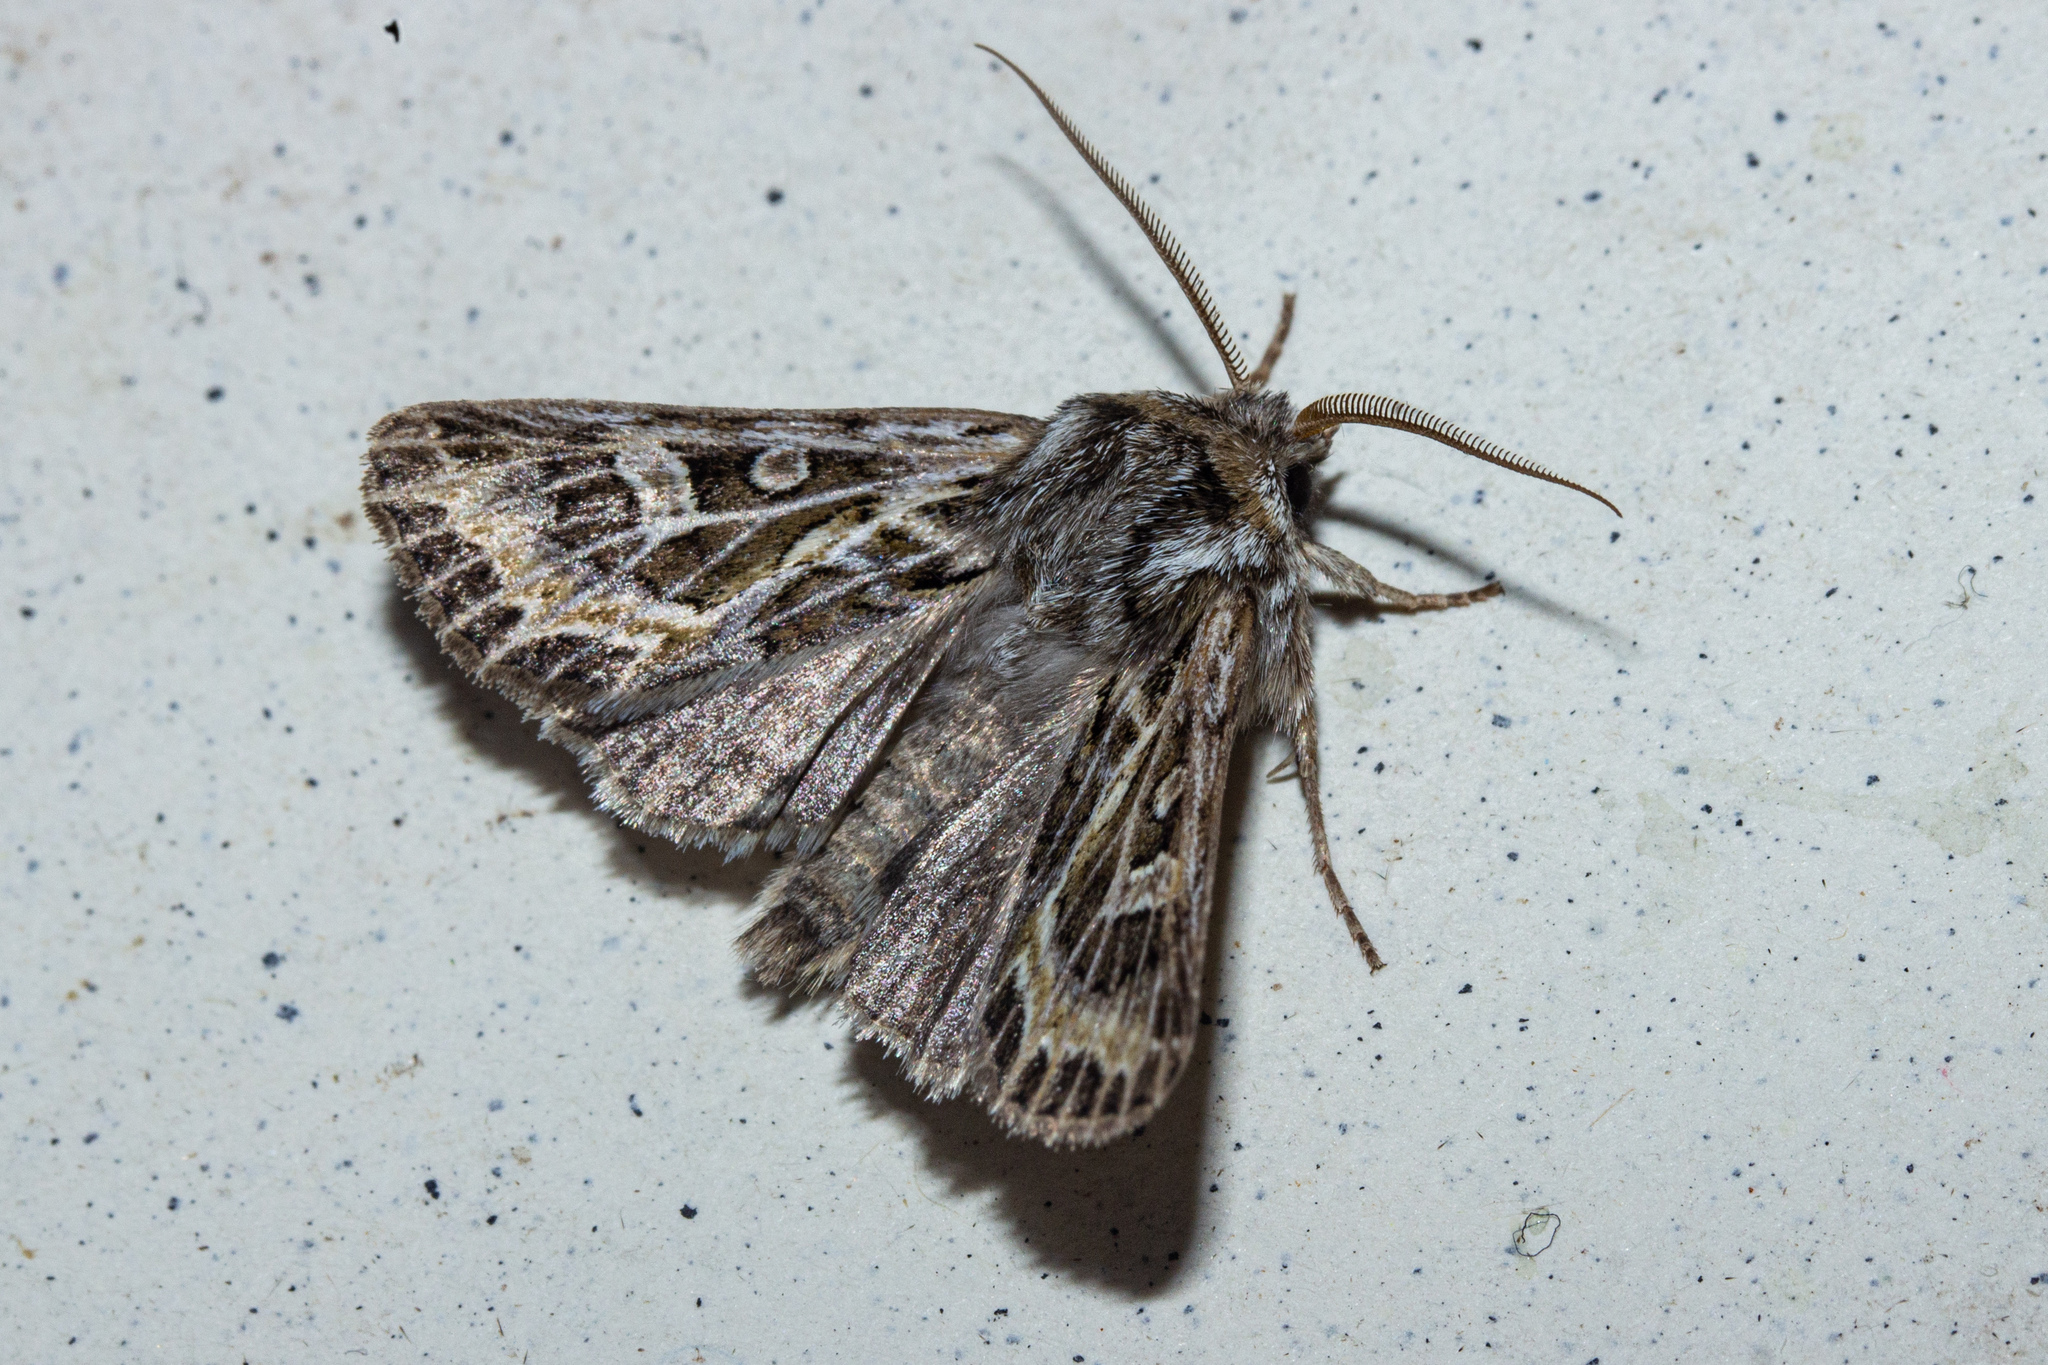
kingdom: Animalia
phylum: Arthropoda
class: Insecta
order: Lepidoptera
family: Noctuidae
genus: Ichneutica
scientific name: Ichneutica
